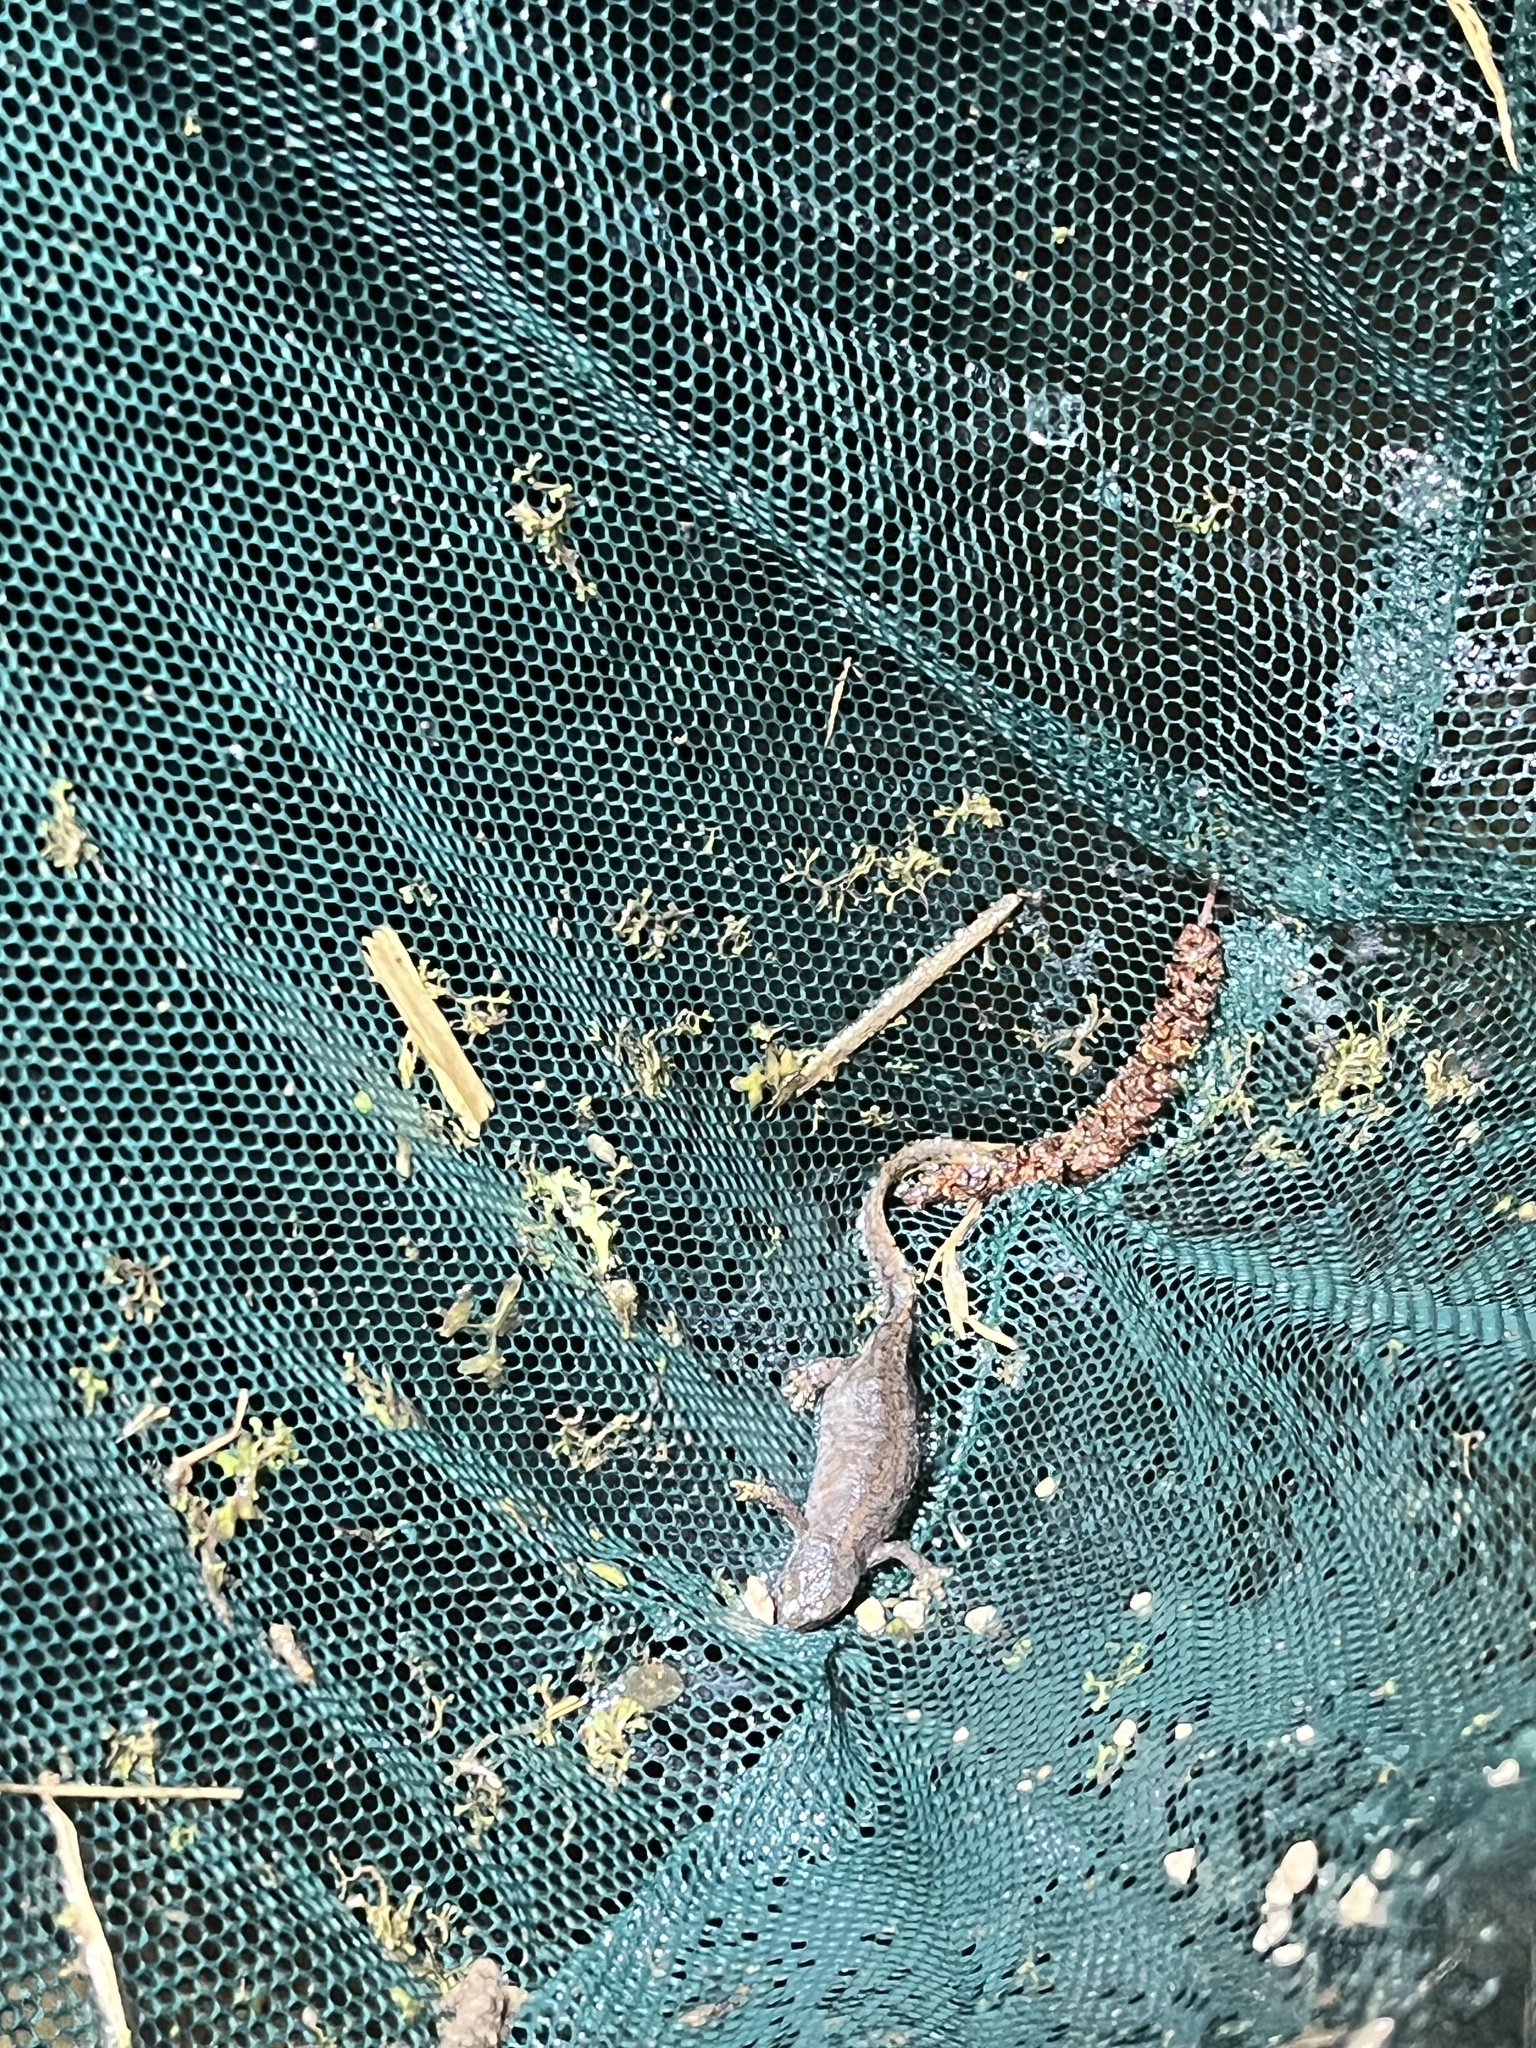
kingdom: Animalia
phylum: Chordata
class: Amphibia
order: Caudata
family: Salamandridae
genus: Ichthyosaura
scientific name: Ichthyosaura alpestris
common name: Alpine newt
